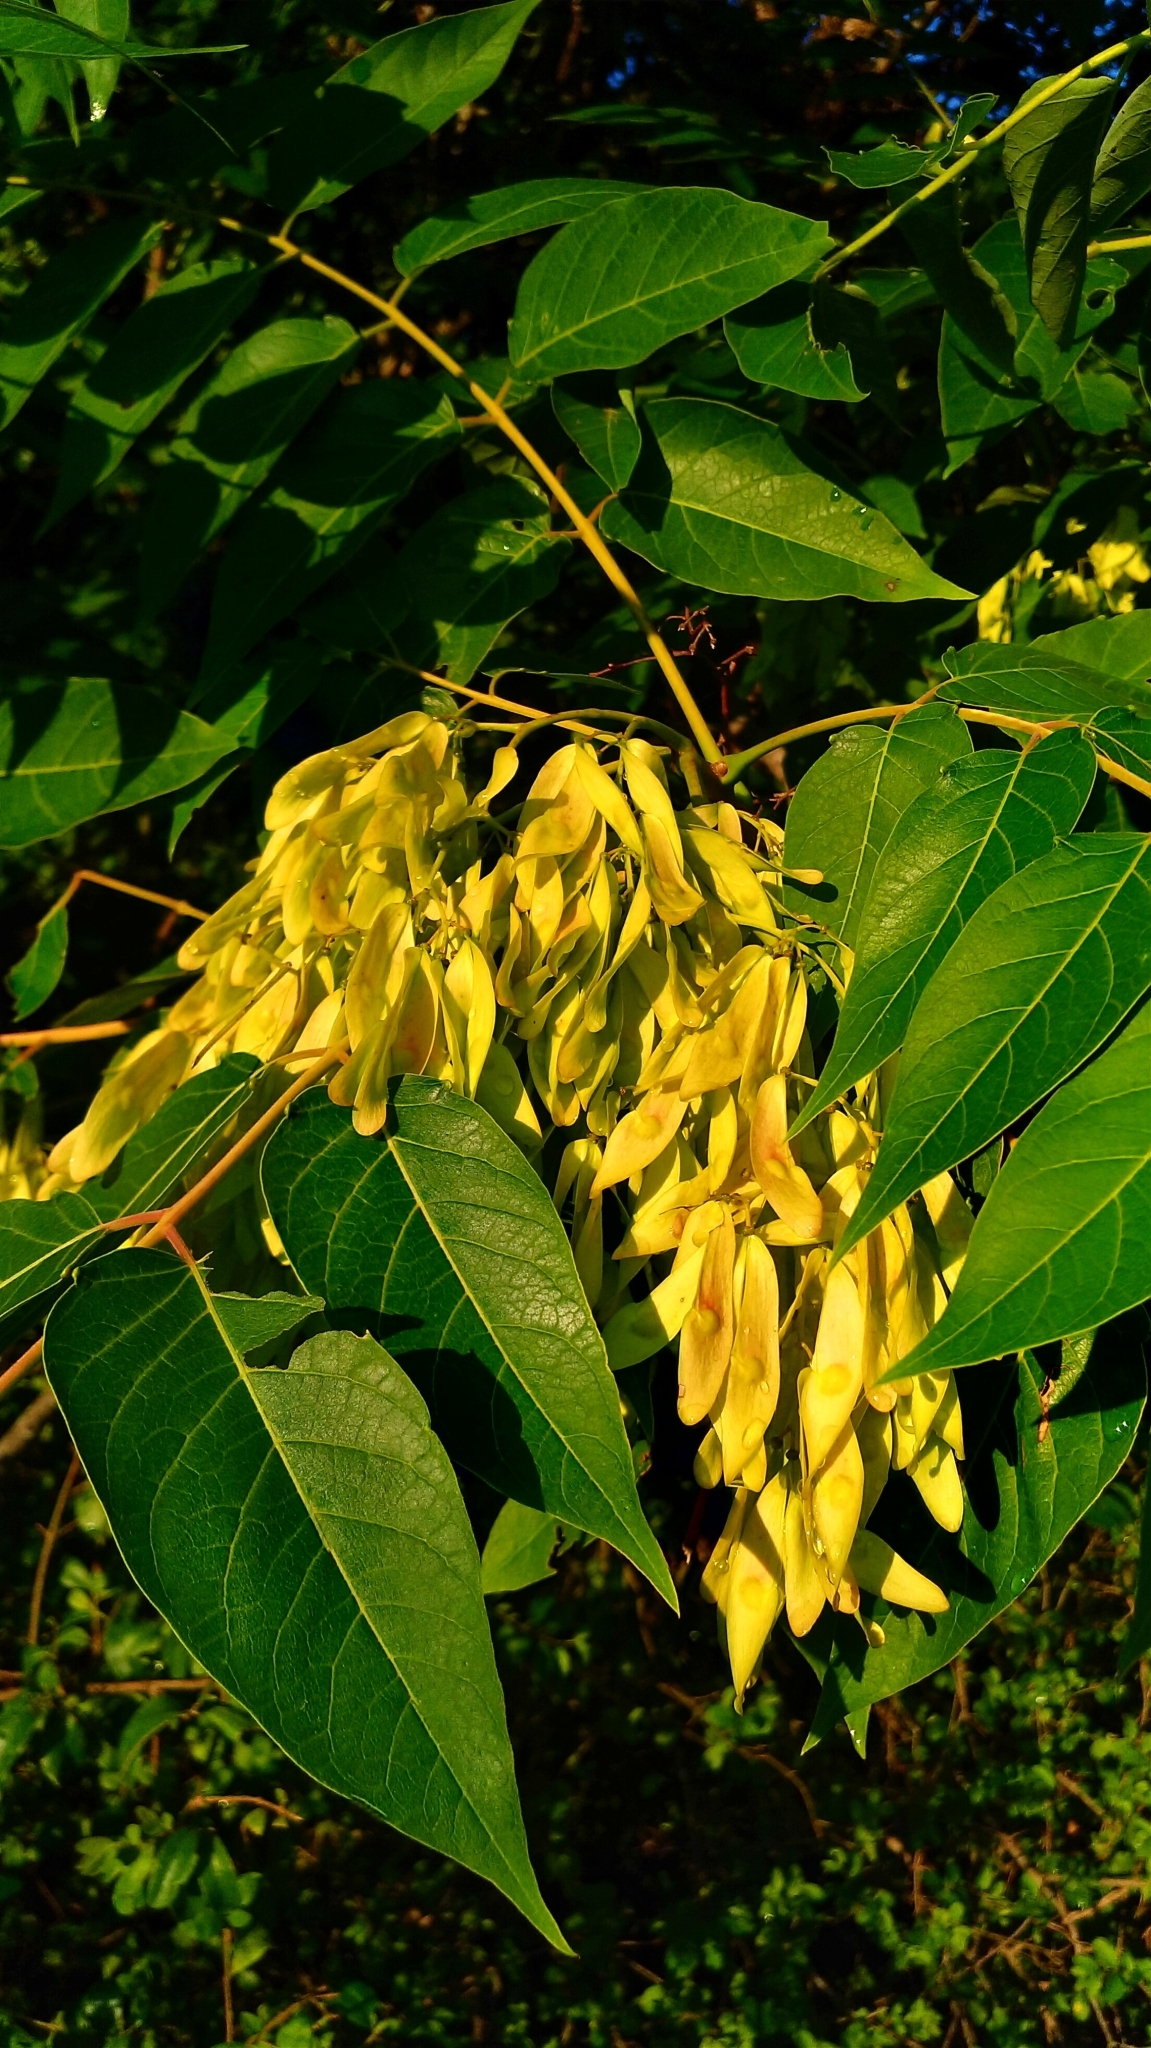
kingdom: Plantae
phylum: Tracheophyta
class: Magnoliopsida
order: Sapindales
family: Simaroubaceae
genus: Ailanthus
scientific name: Ailanthus altissima
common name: Tree-of-heaven
